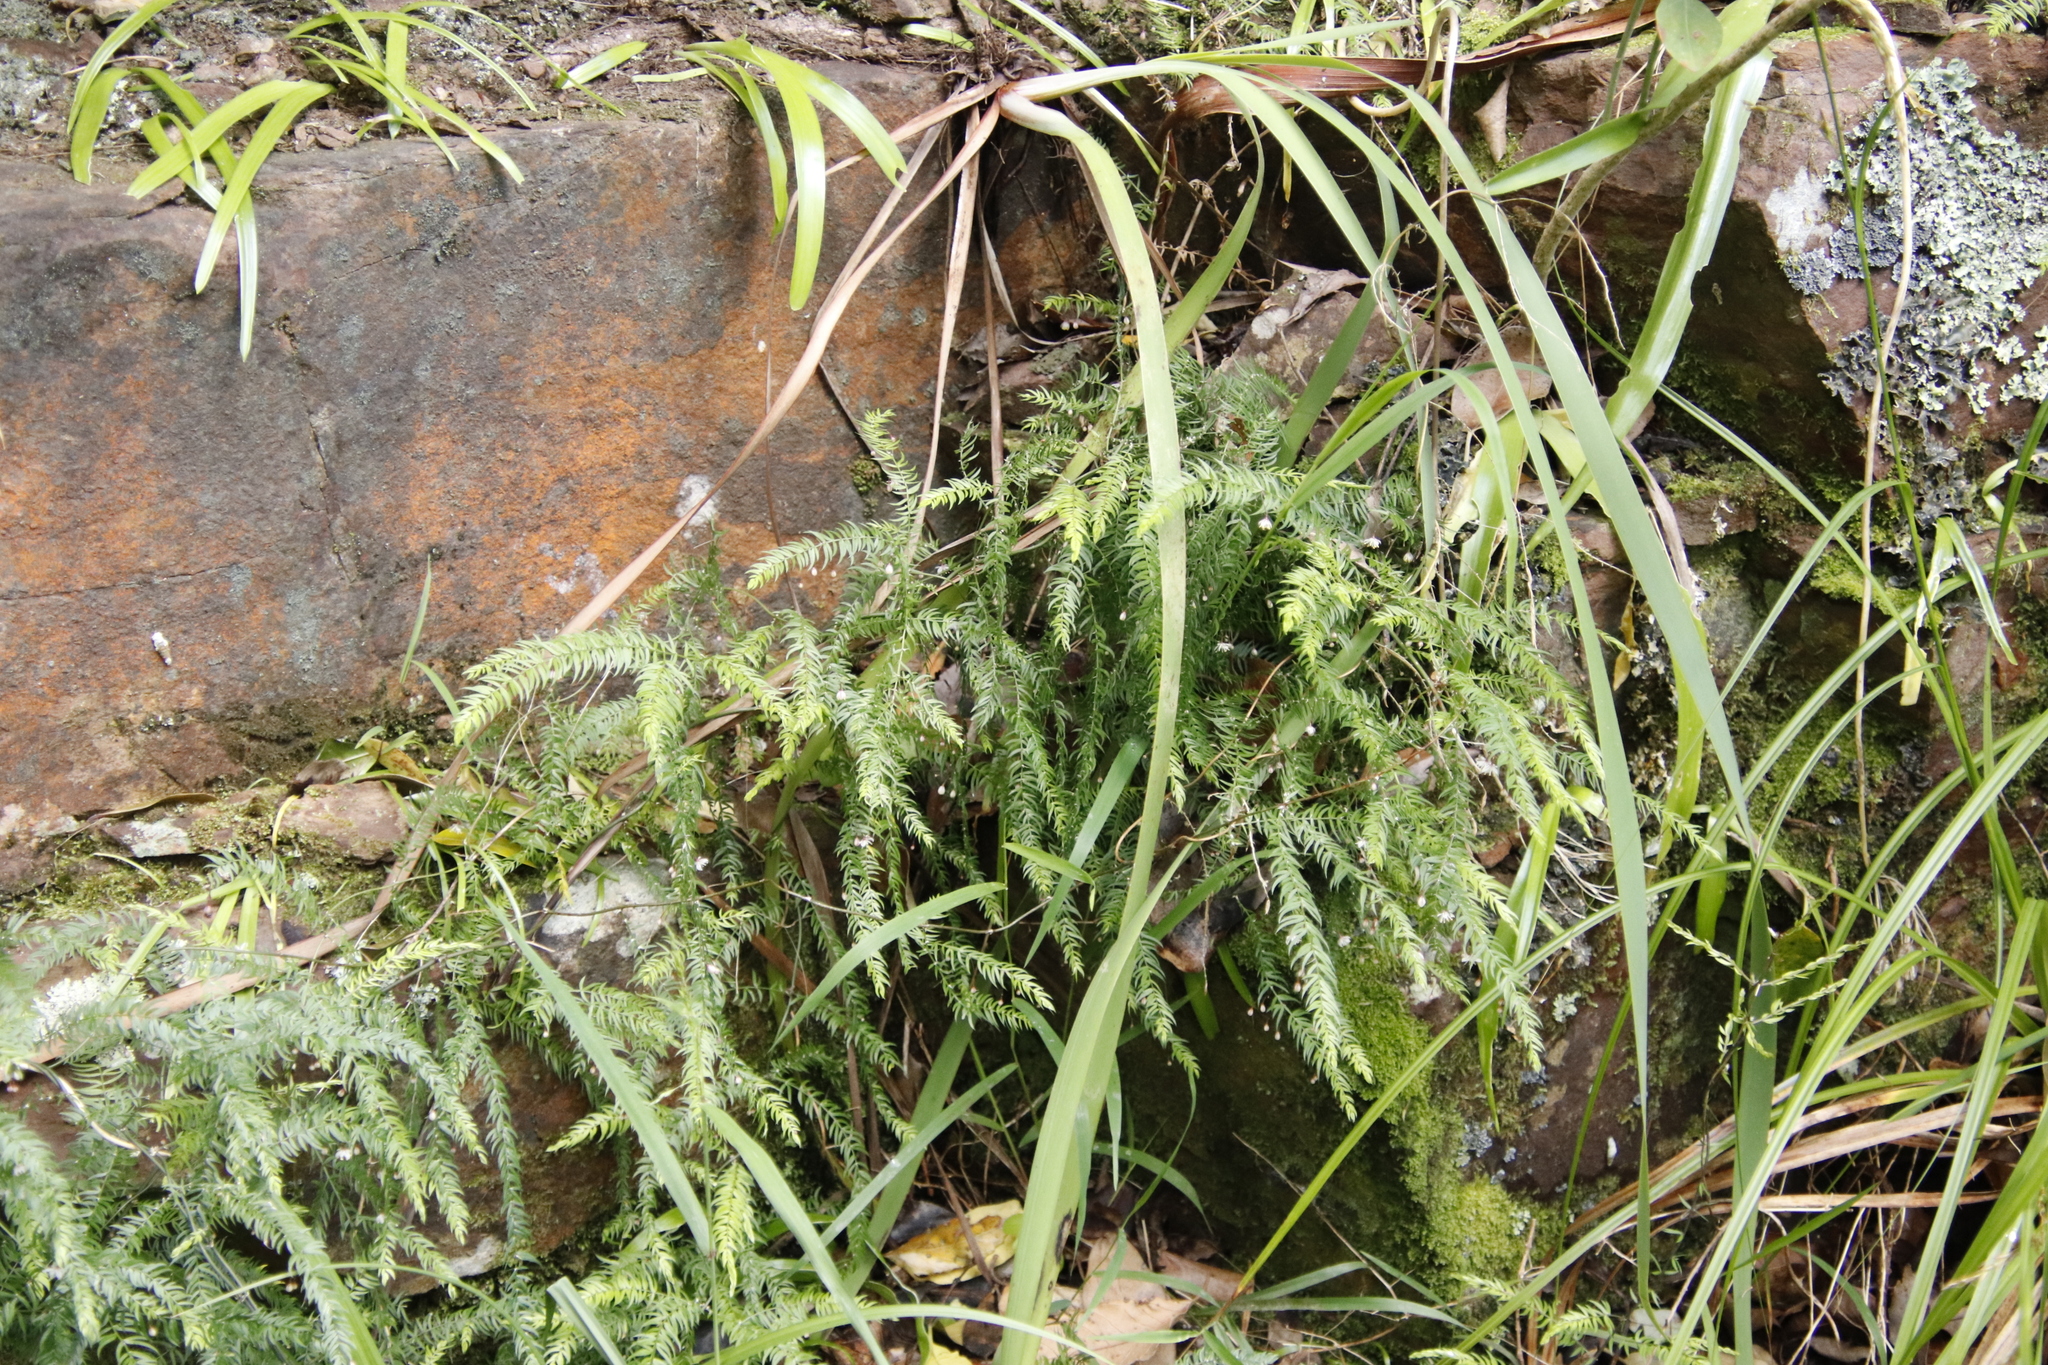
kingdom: Plantae
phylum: Tracheophyta
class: Liliopsida
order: Asparagales
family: Asparagaceae
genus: Asparagus
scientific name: Asparagus scandens
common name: Asparagus-fern
